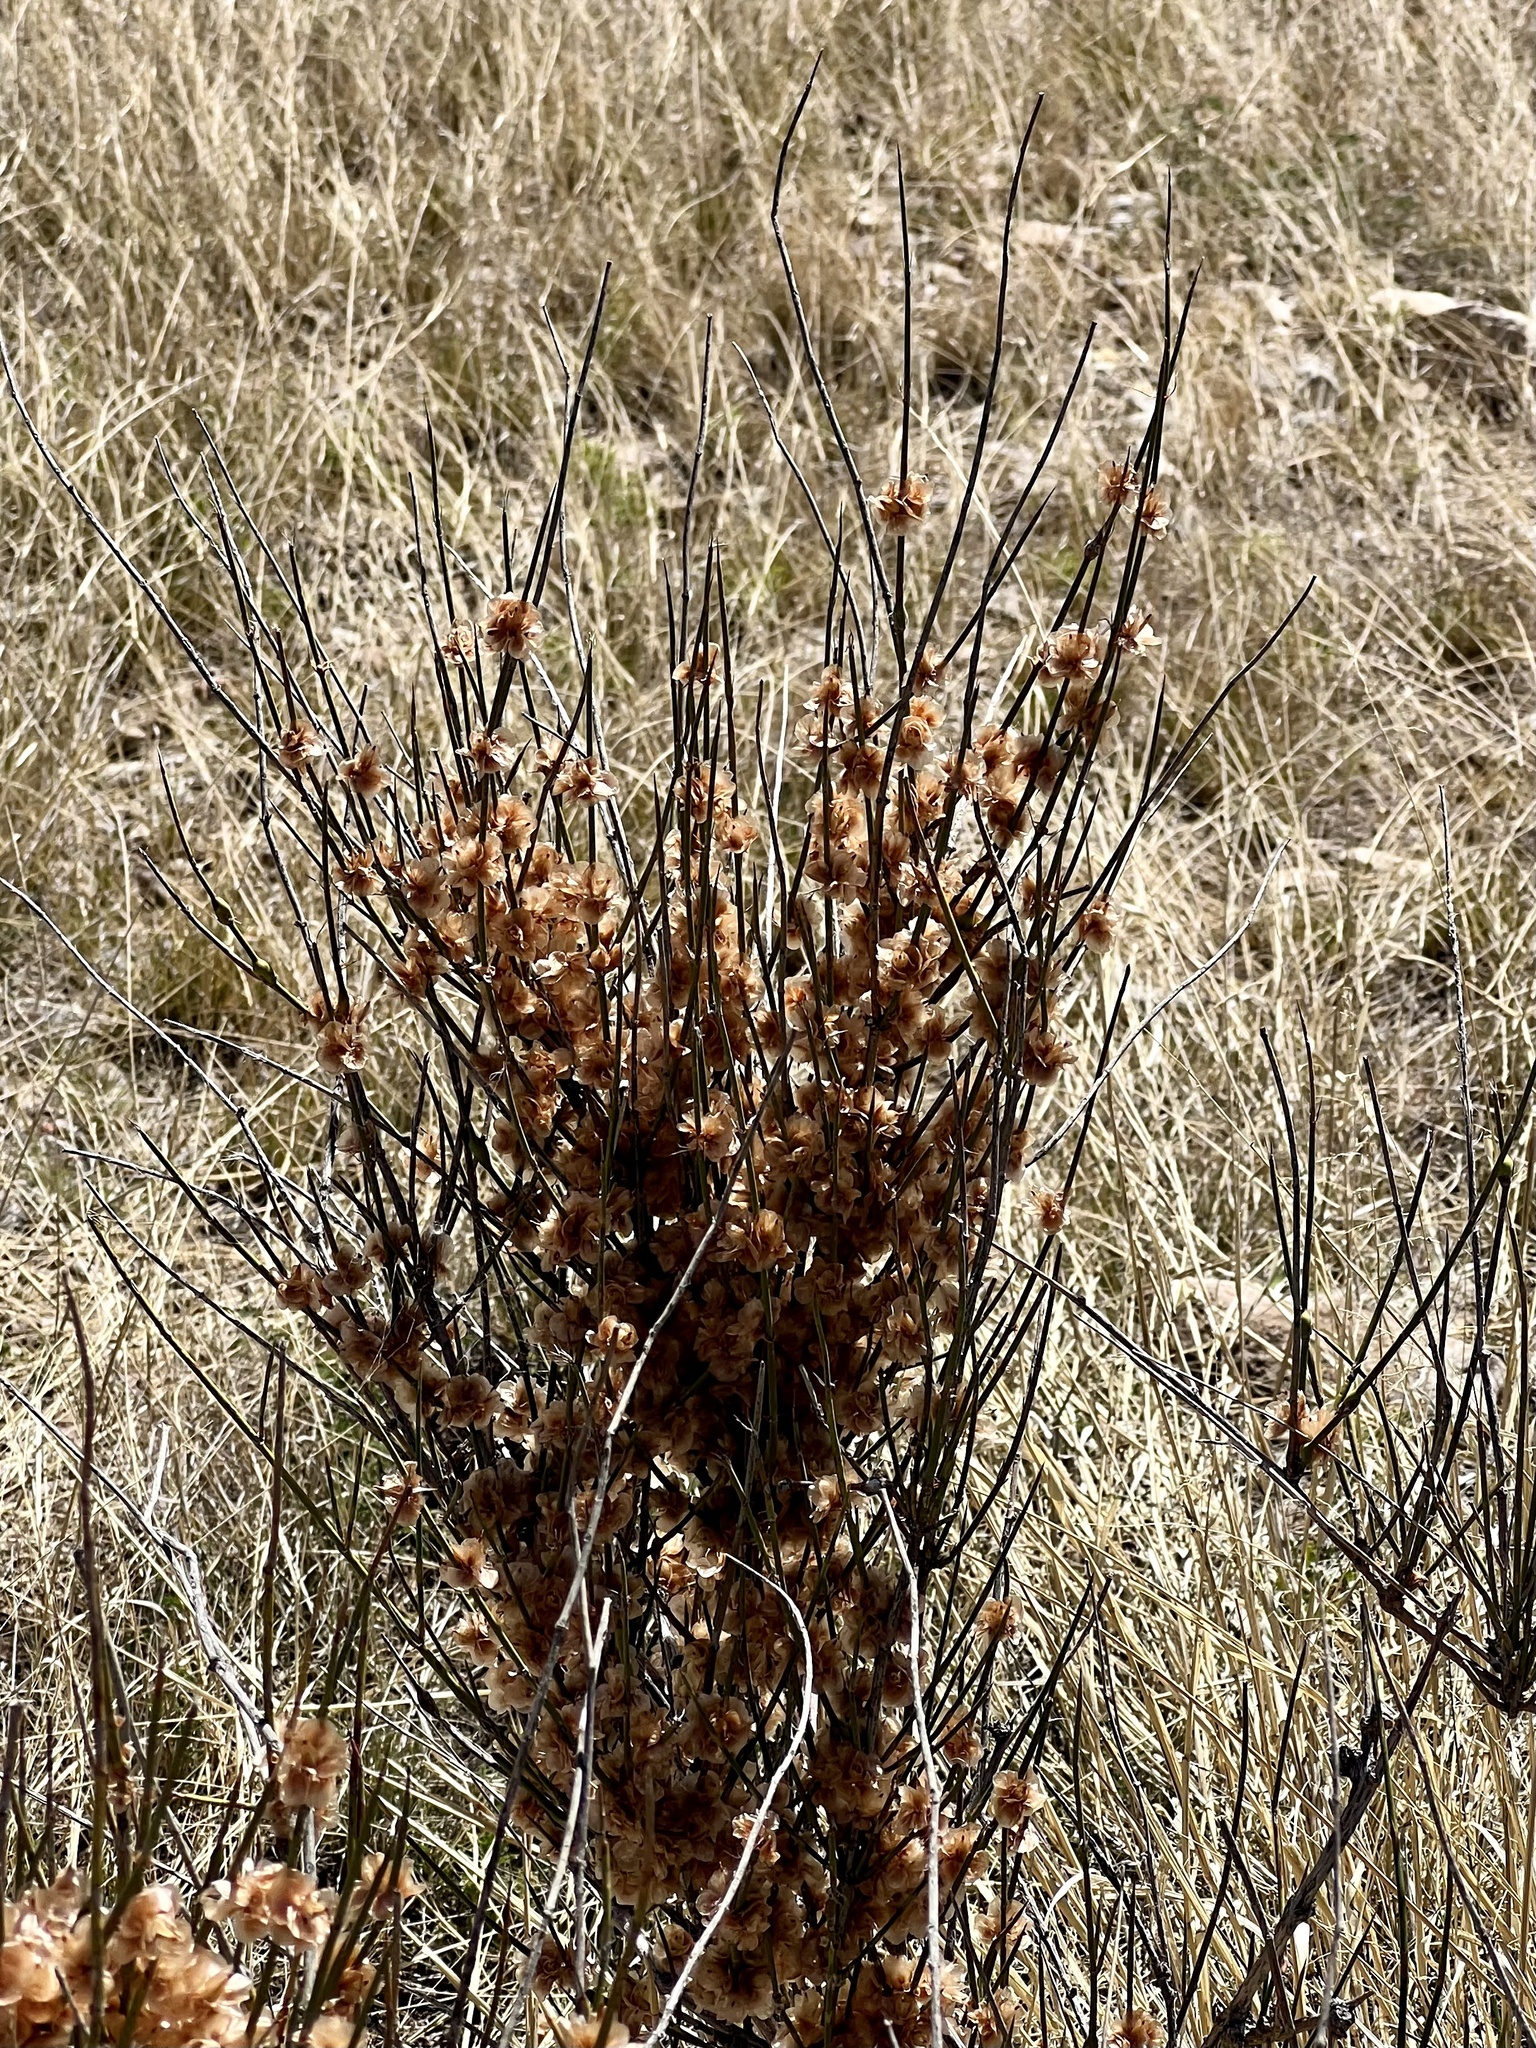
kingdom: Plantae
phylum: Tracheophyta
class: Gnetopsida
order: Ephedrales
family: Ephedraceae
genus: Ephedra
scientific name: Ephedra trifurca
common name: Mexican-tea
